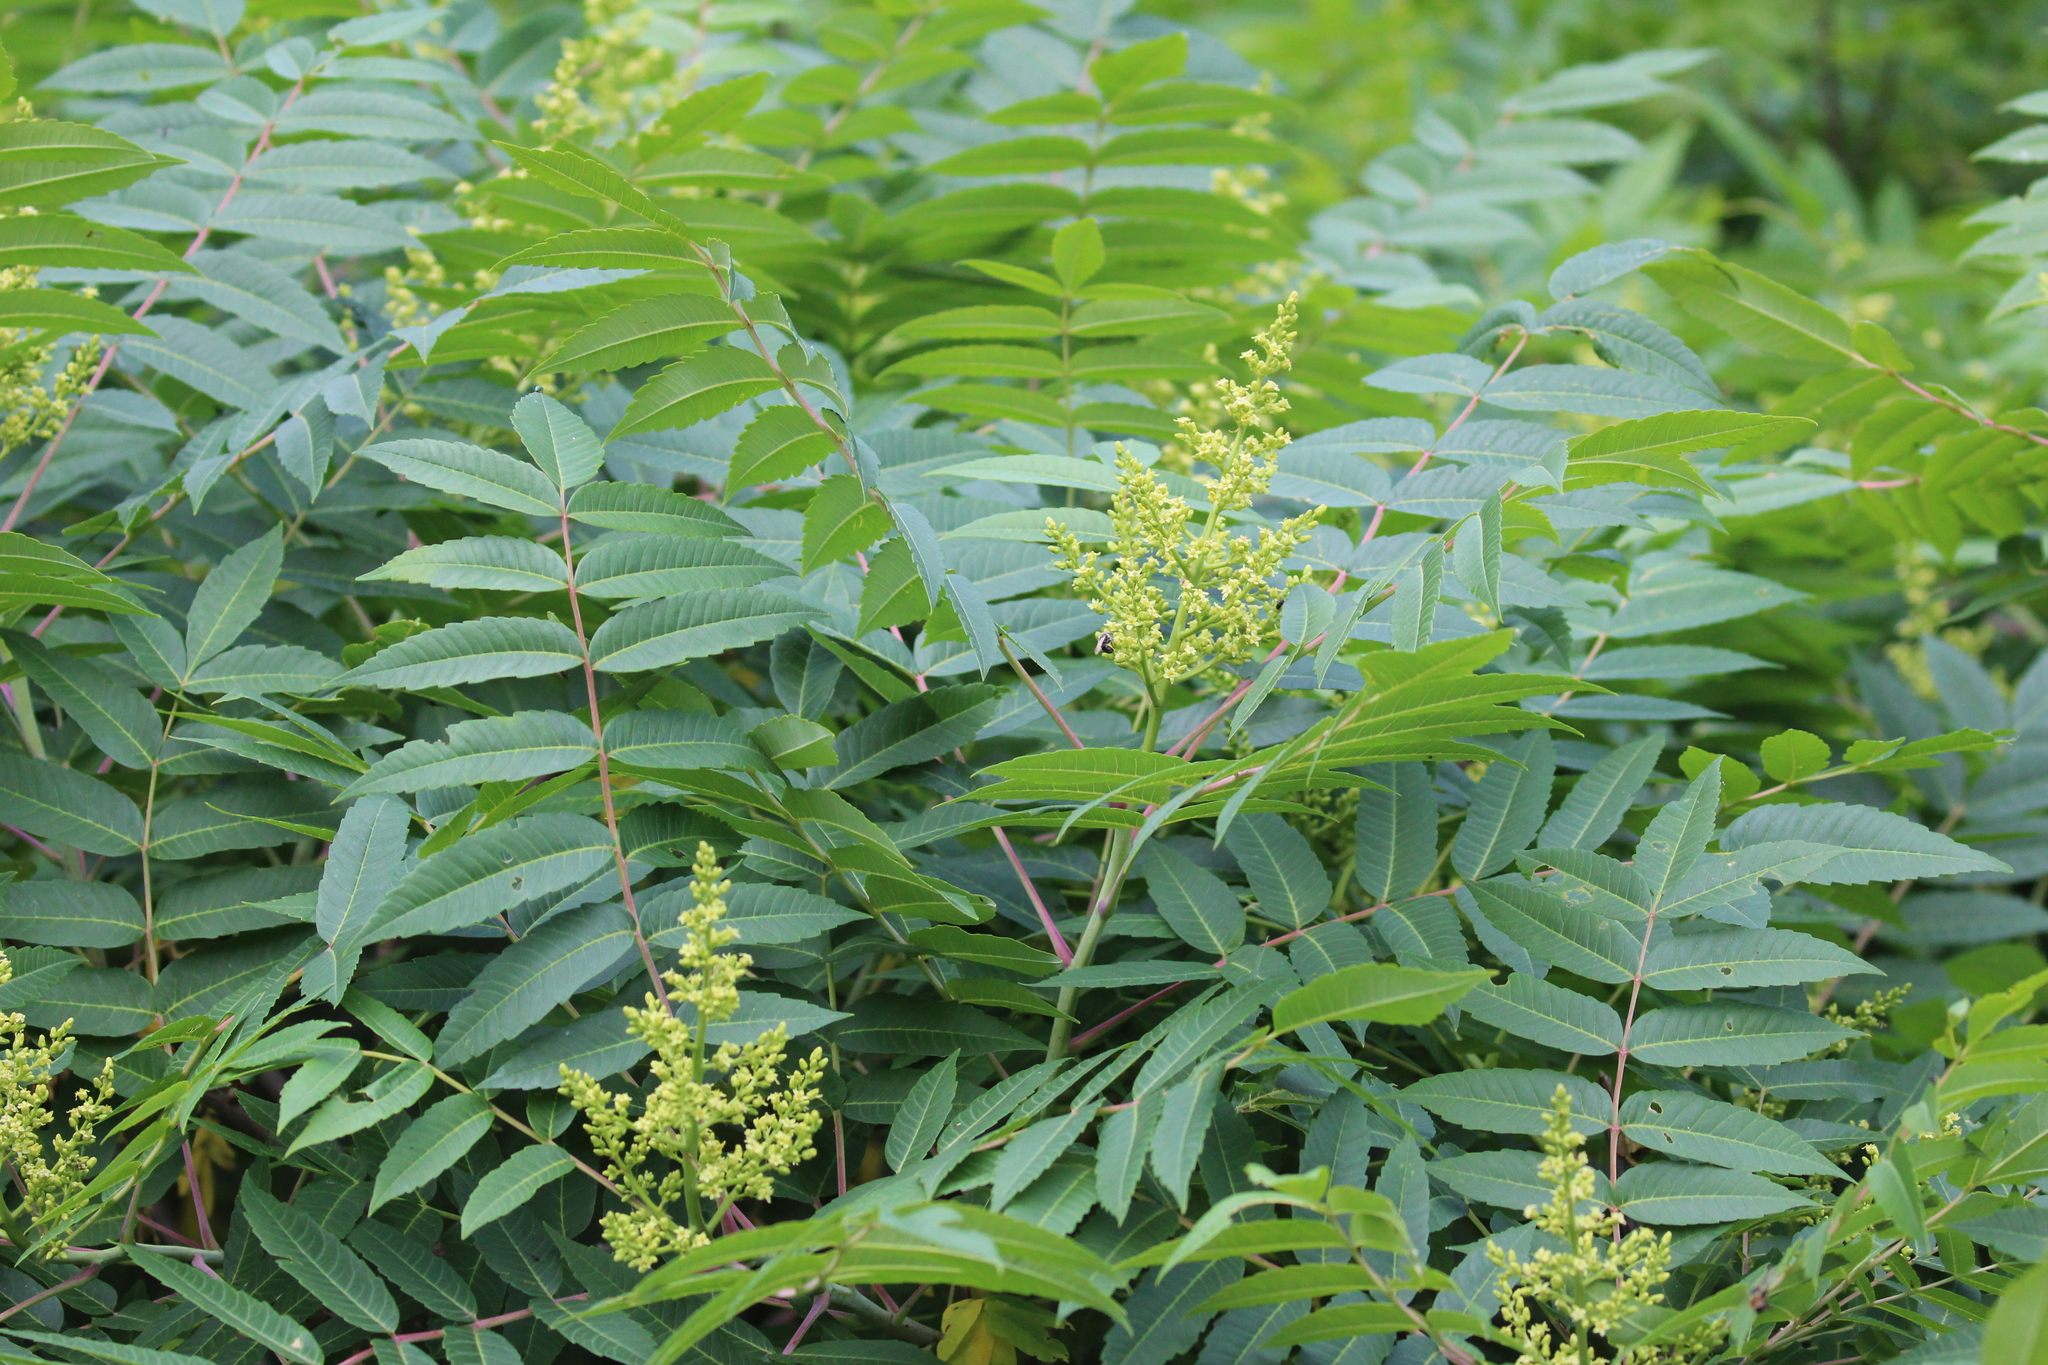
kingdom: Plantae
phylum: Tracheophyta
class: Magnoliopsida
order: Sapindales
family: Anacardiaceae
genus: Rhus
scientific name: Rhus glabra
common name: Scarlet sumac
